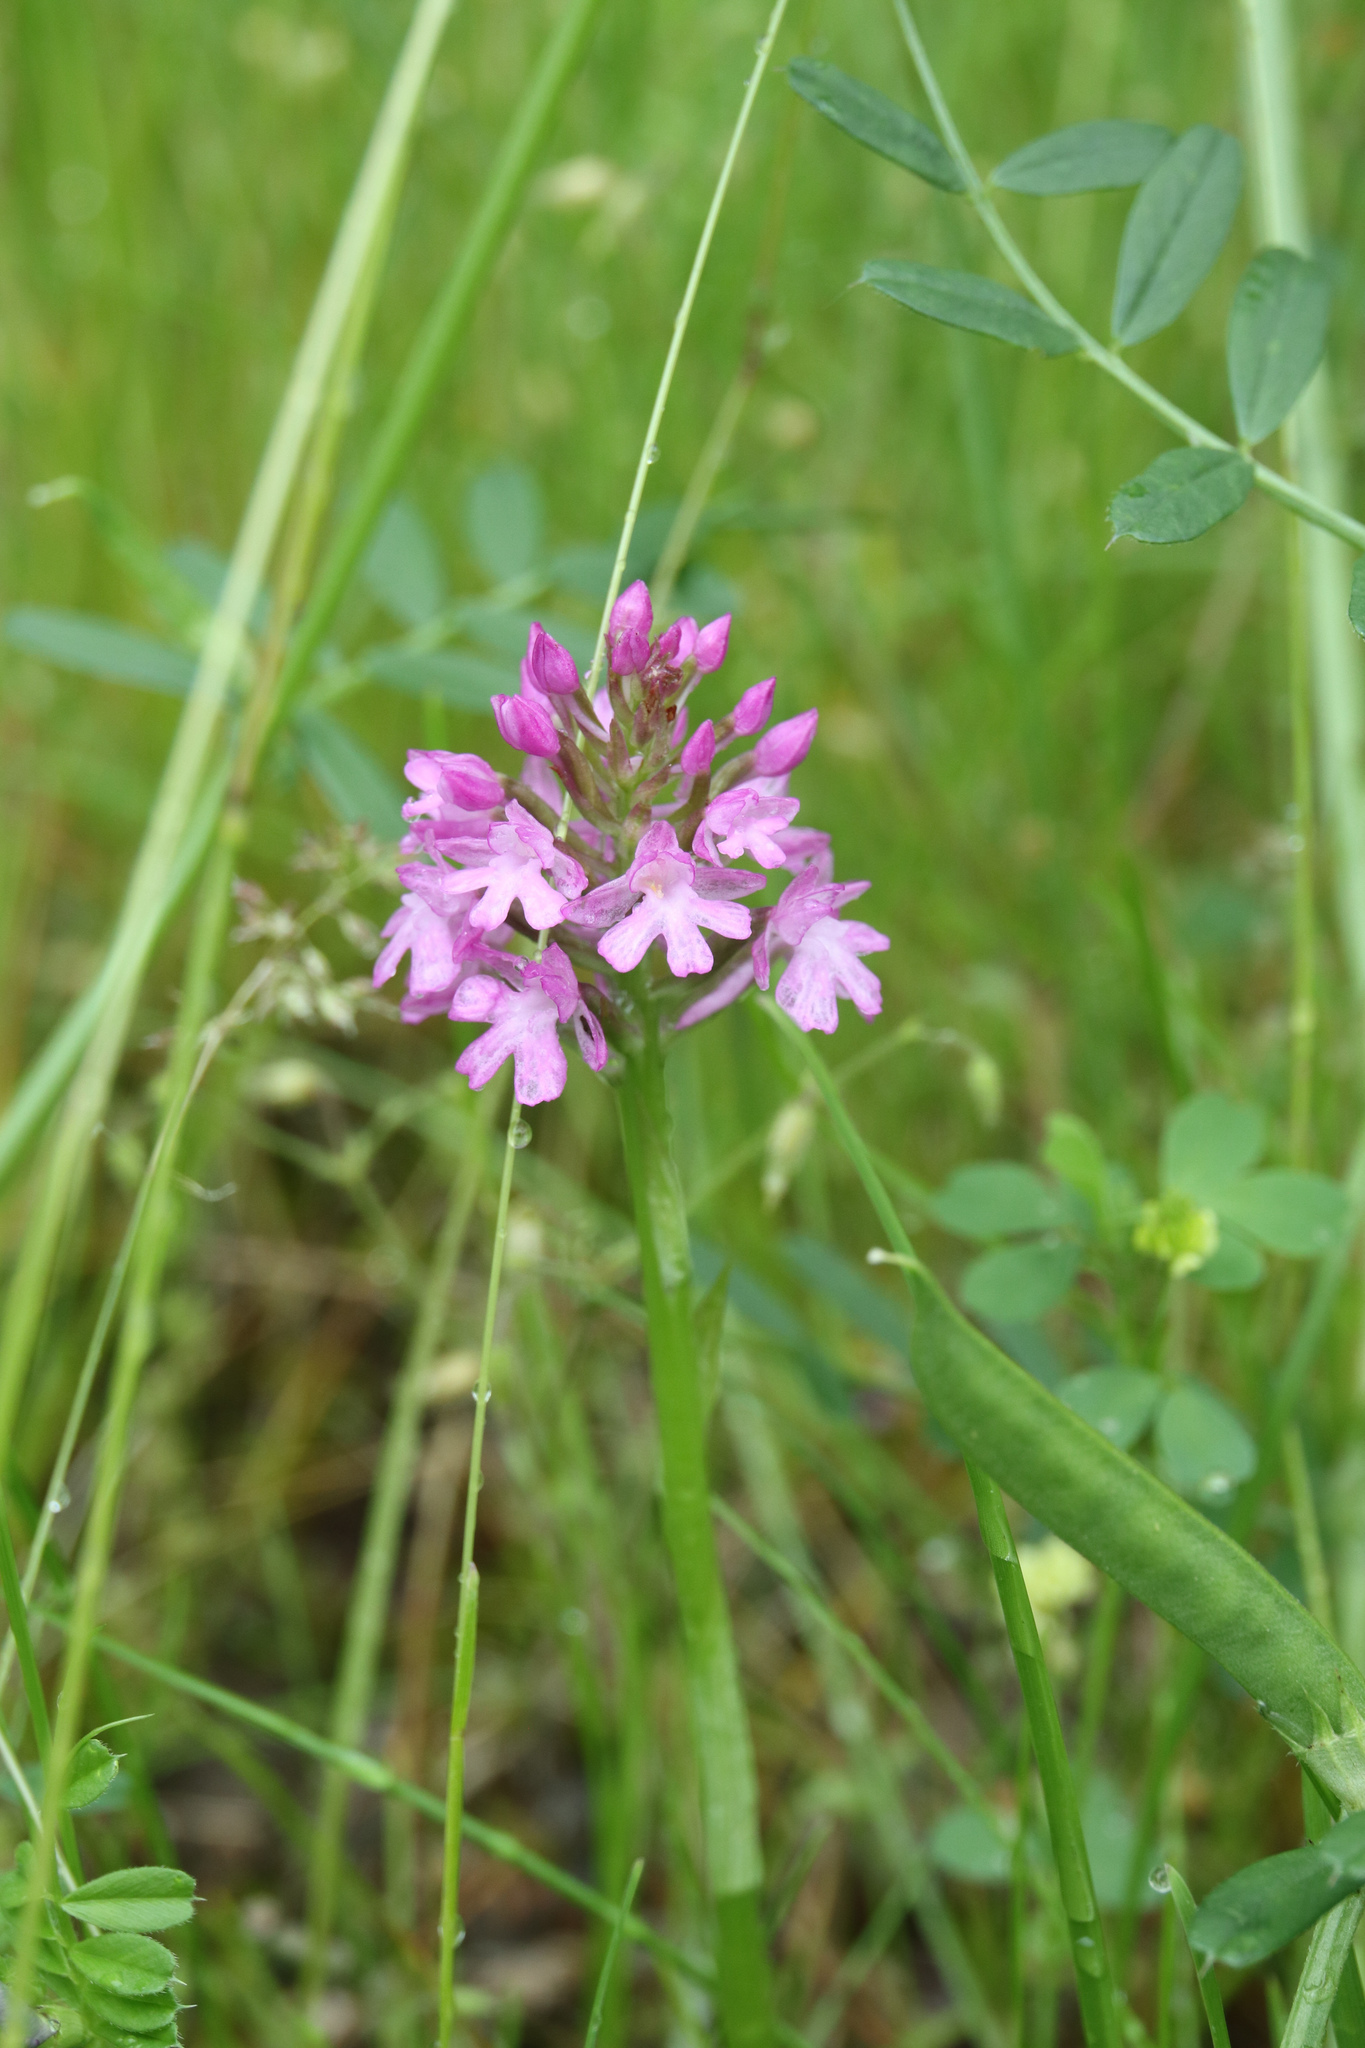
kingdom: Plantae
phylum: Tracheophyta
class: Liliopsida
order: Asparagales
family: Orchidaceae
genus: Anacamptis
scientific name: Anacamptis pyramidalis
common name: Pyramidal orchid
